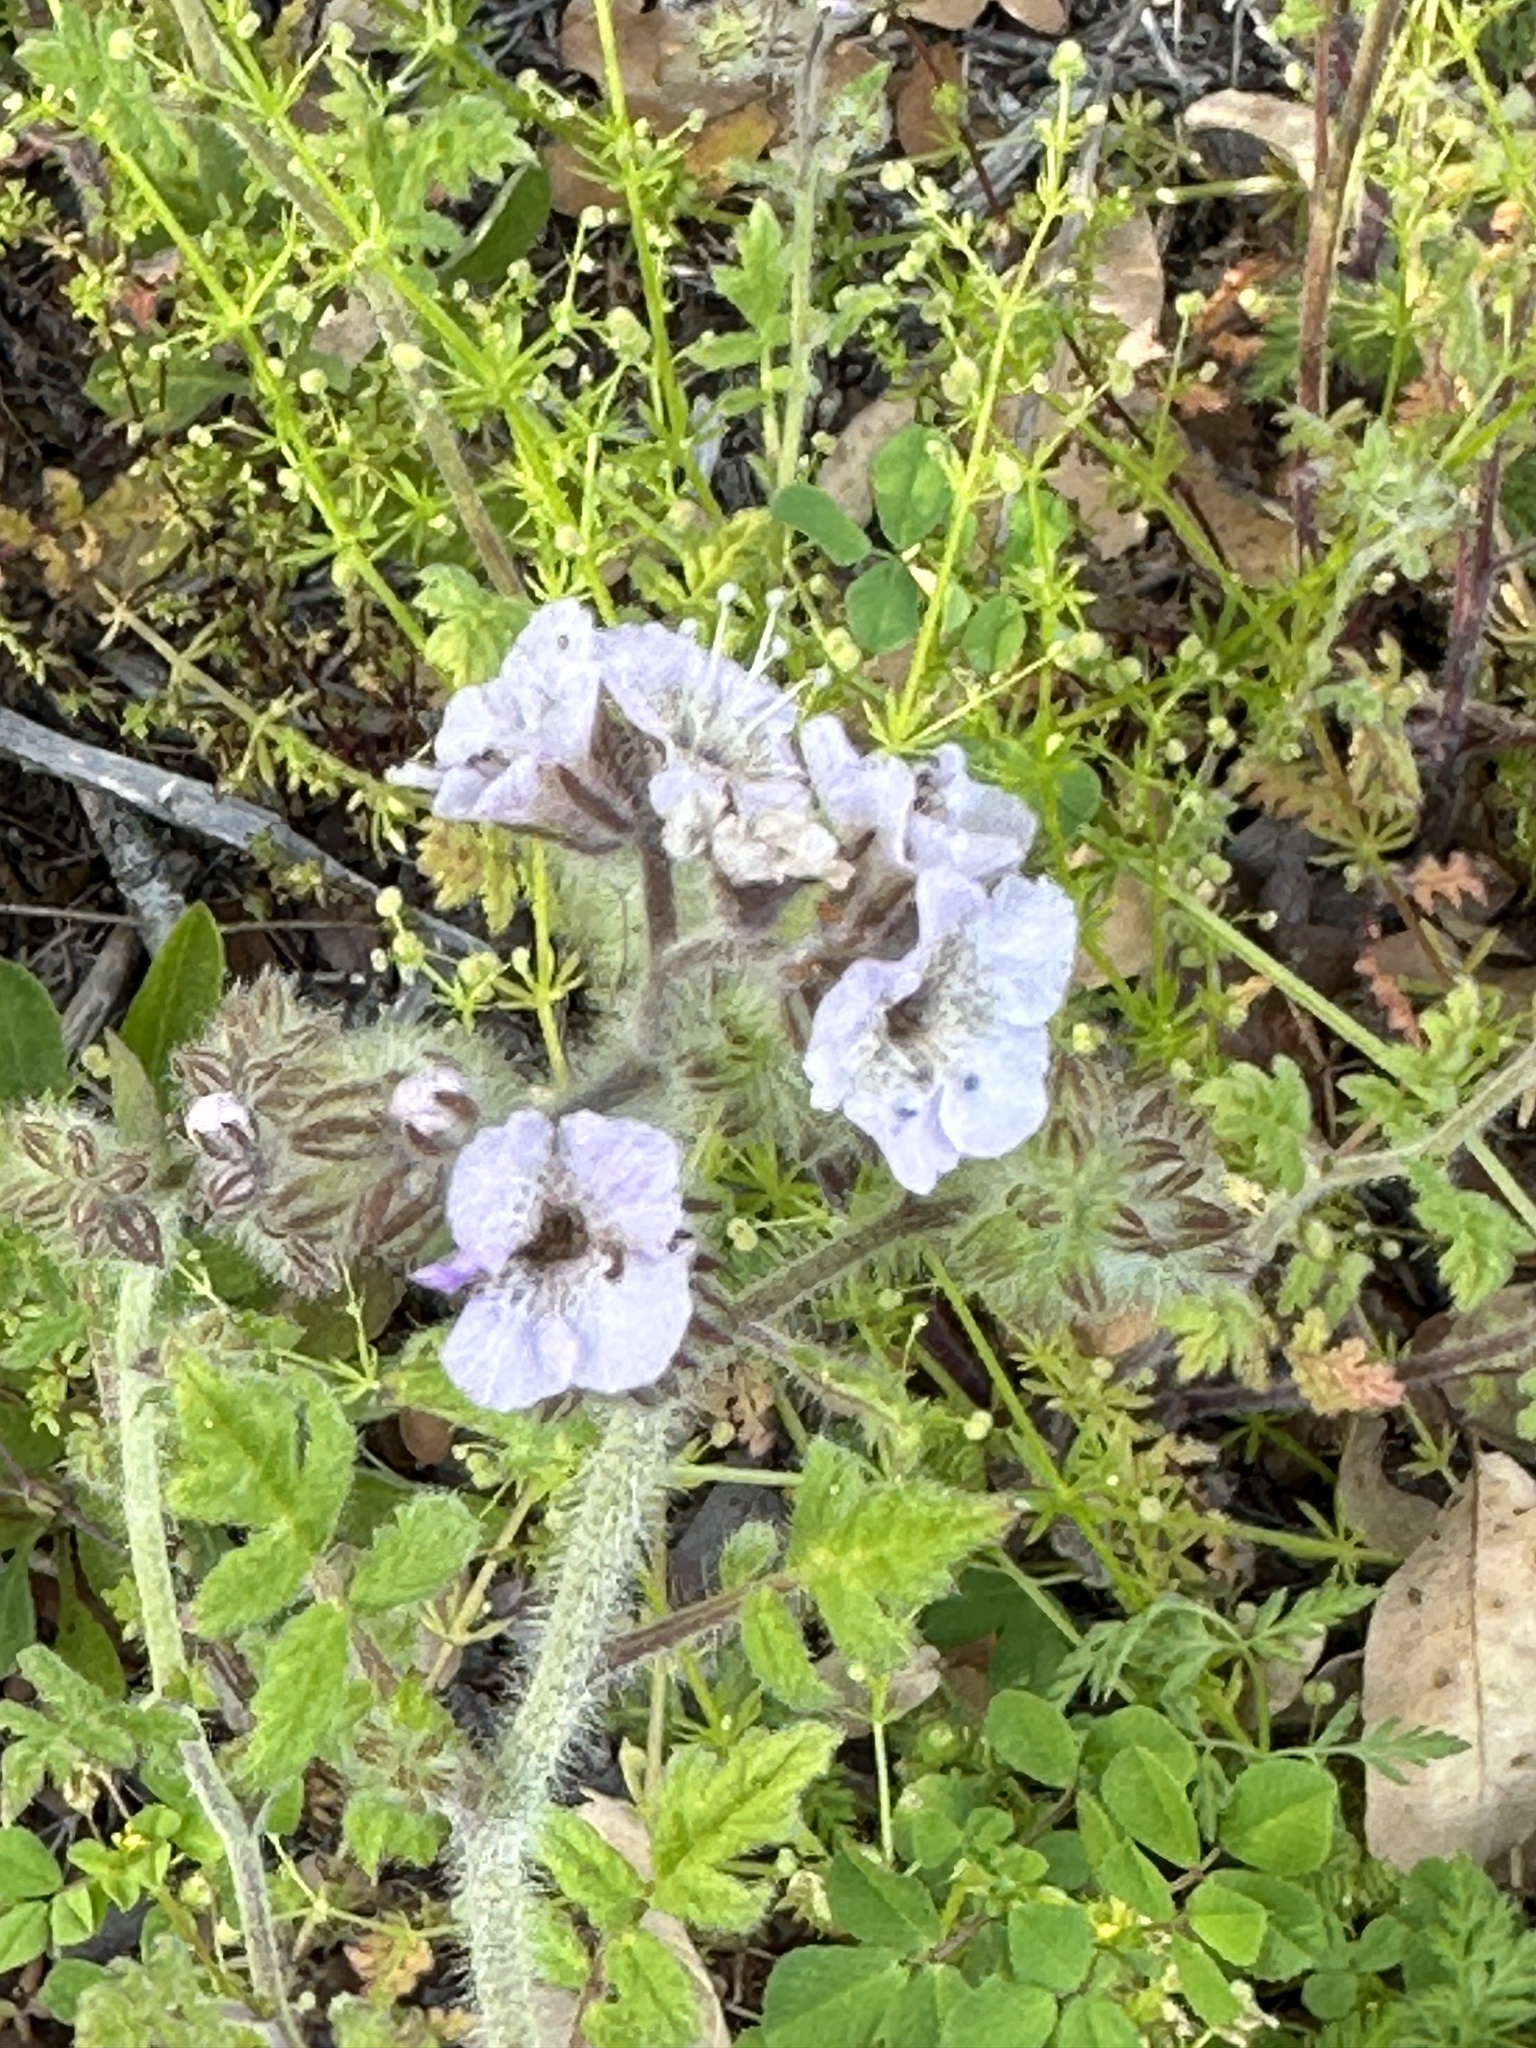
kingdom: Plantae
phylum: Tracheophyta
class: Magnoliopsida
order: Boraginales
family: Hydrophyllaceae
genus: Phacelia
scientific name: Phacelia cicutaria
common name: Caterpillar phacelia
